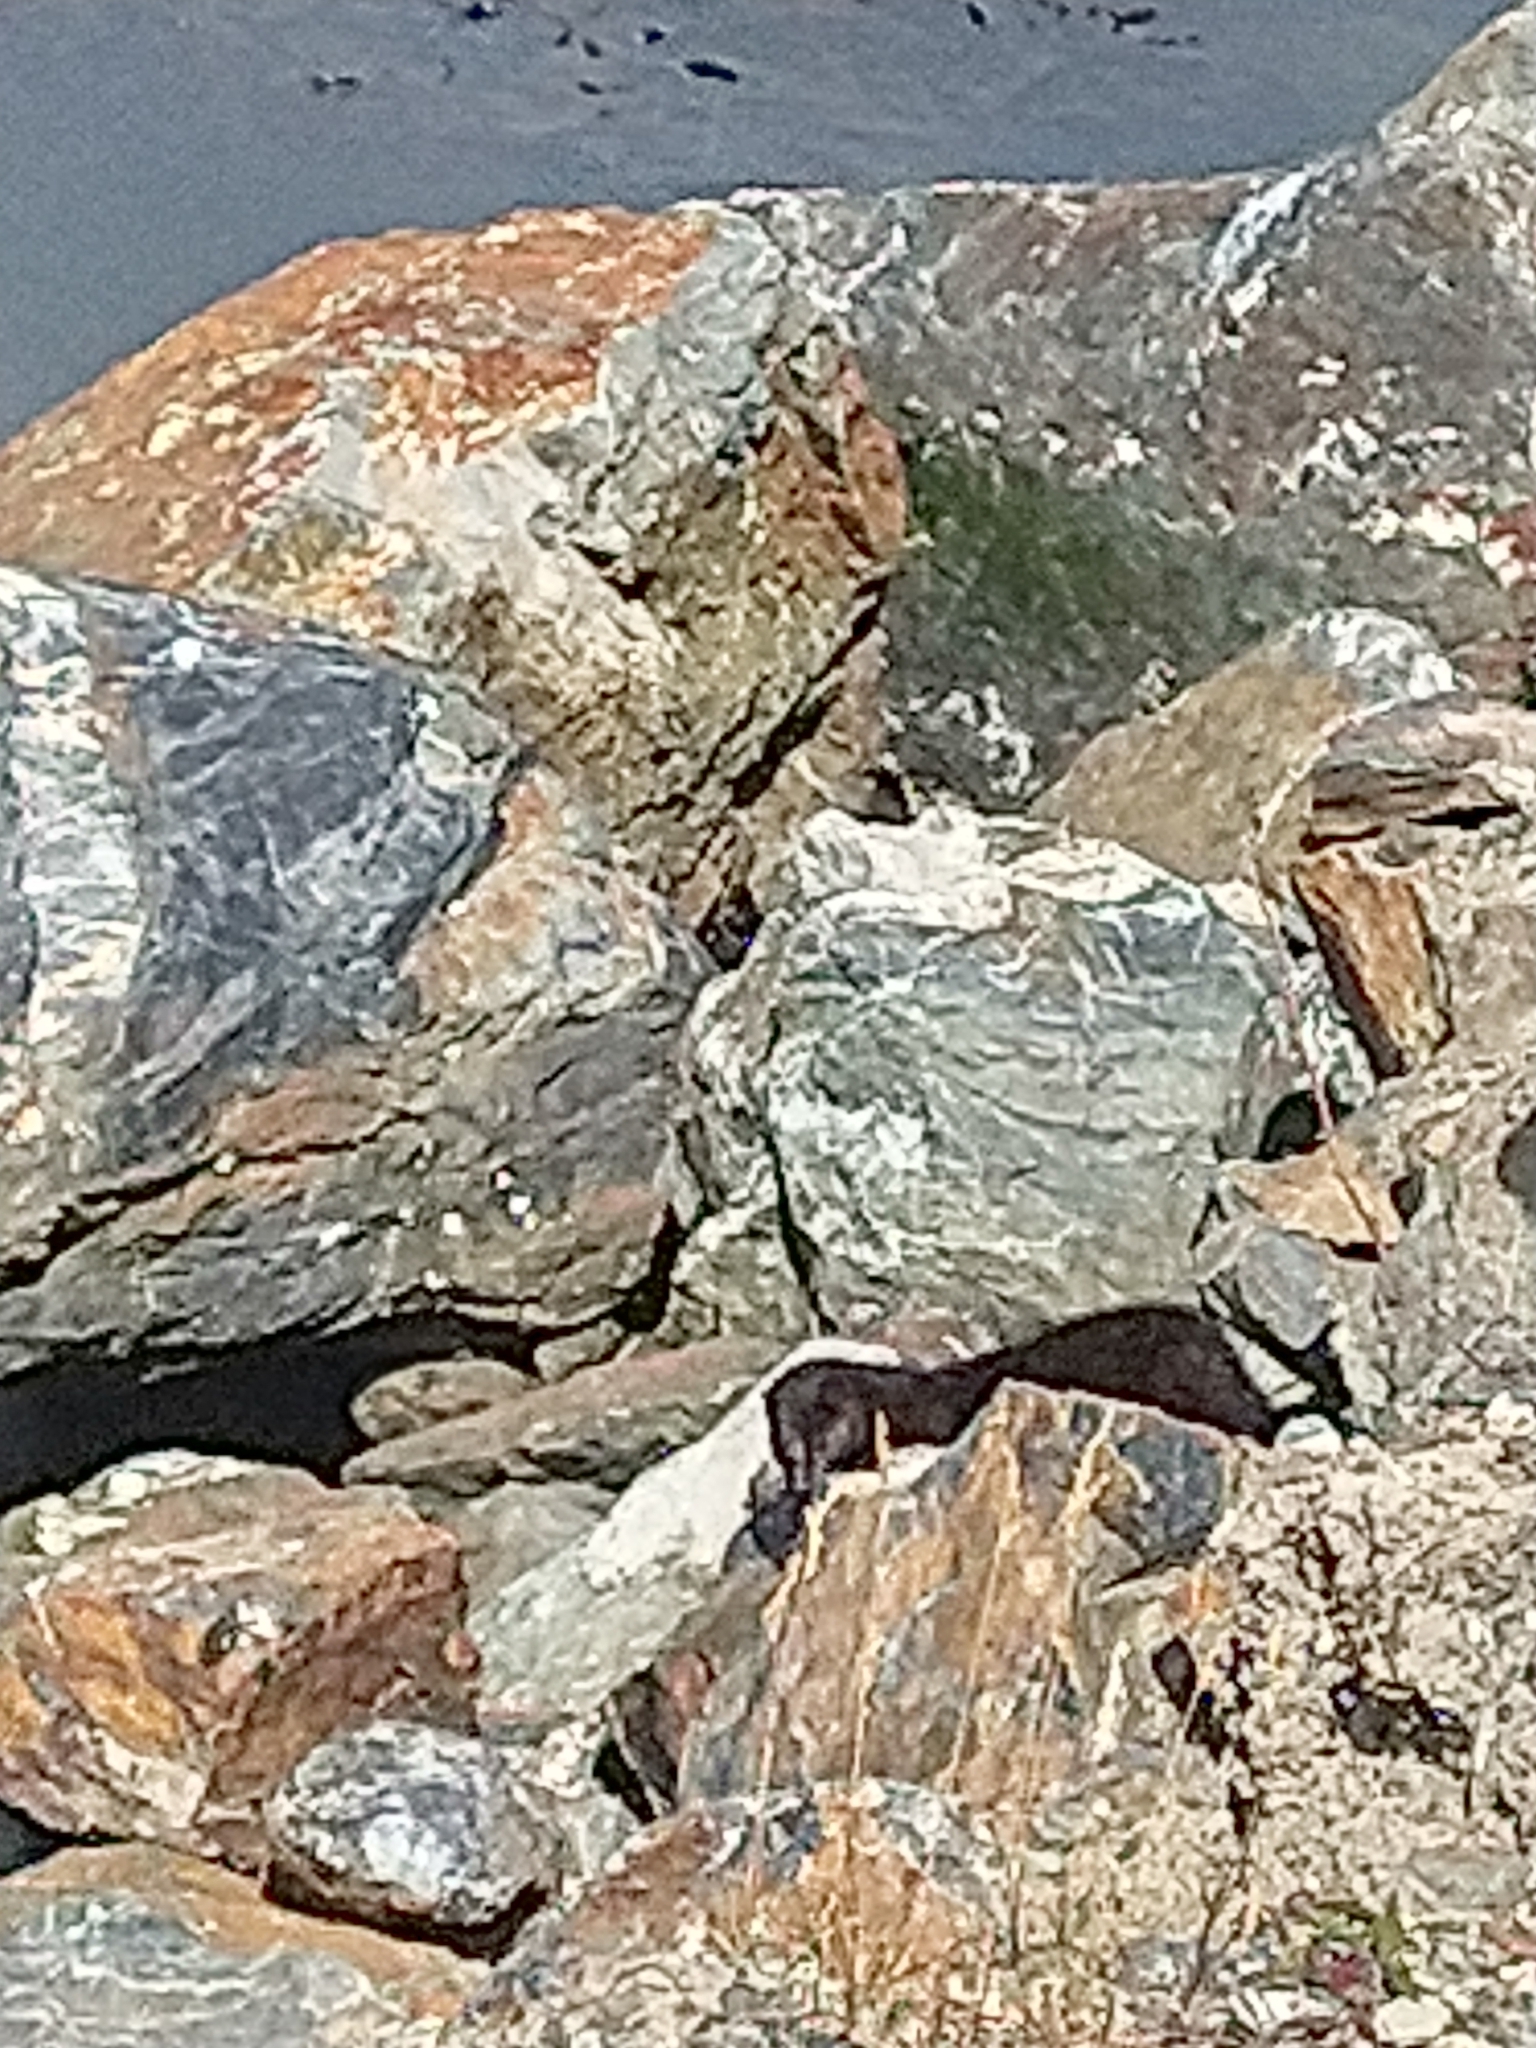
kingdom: Animalia
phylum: Chordata
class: Mammalia
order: Carnivora
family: Mustelidae
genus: Mustela
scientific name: Mustela
